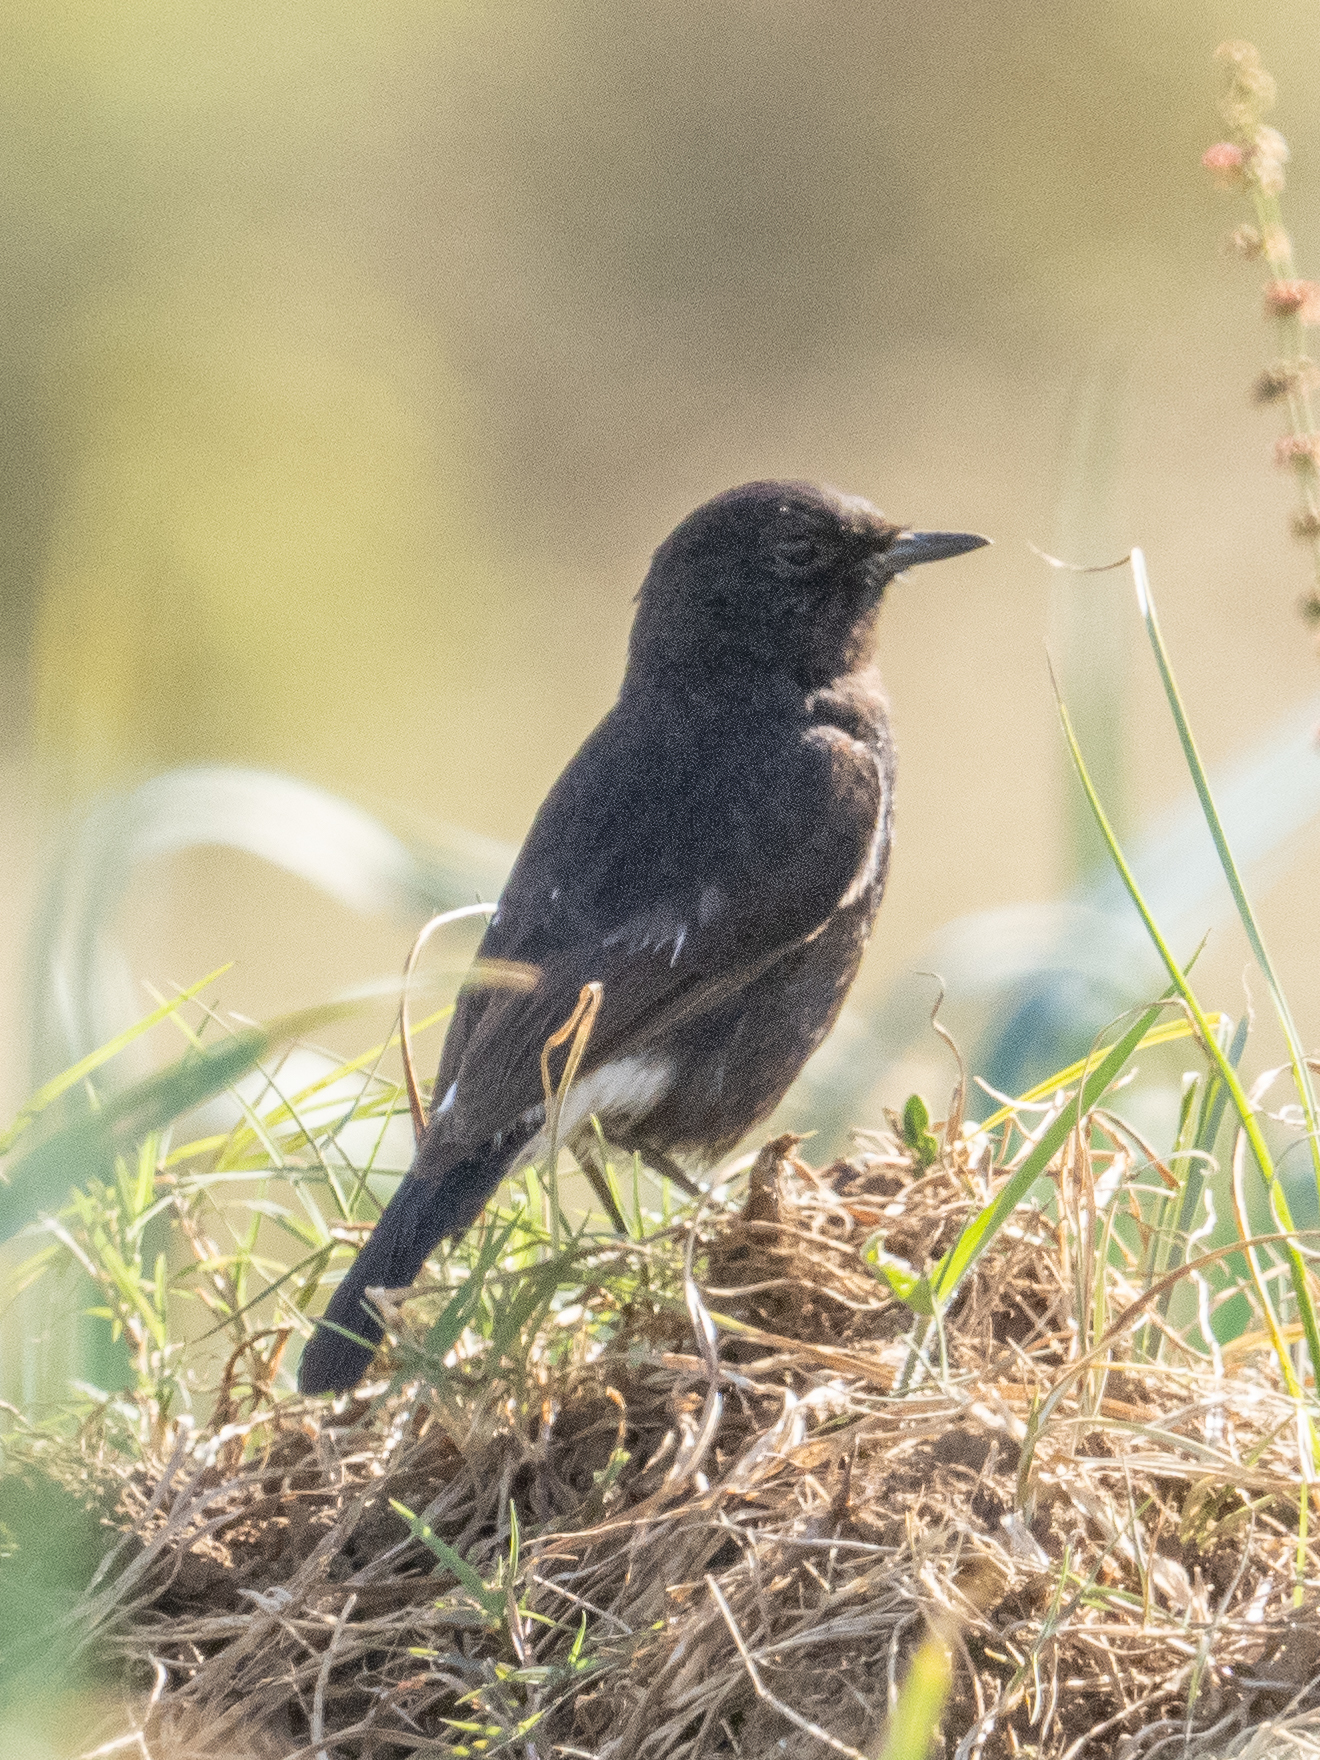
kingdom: Animalia
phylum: Chordata
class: Aves
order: Passeriformes
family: Muscicapidae
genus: Saxicola
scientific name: Saxicola caprata
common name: Pied bush chat
